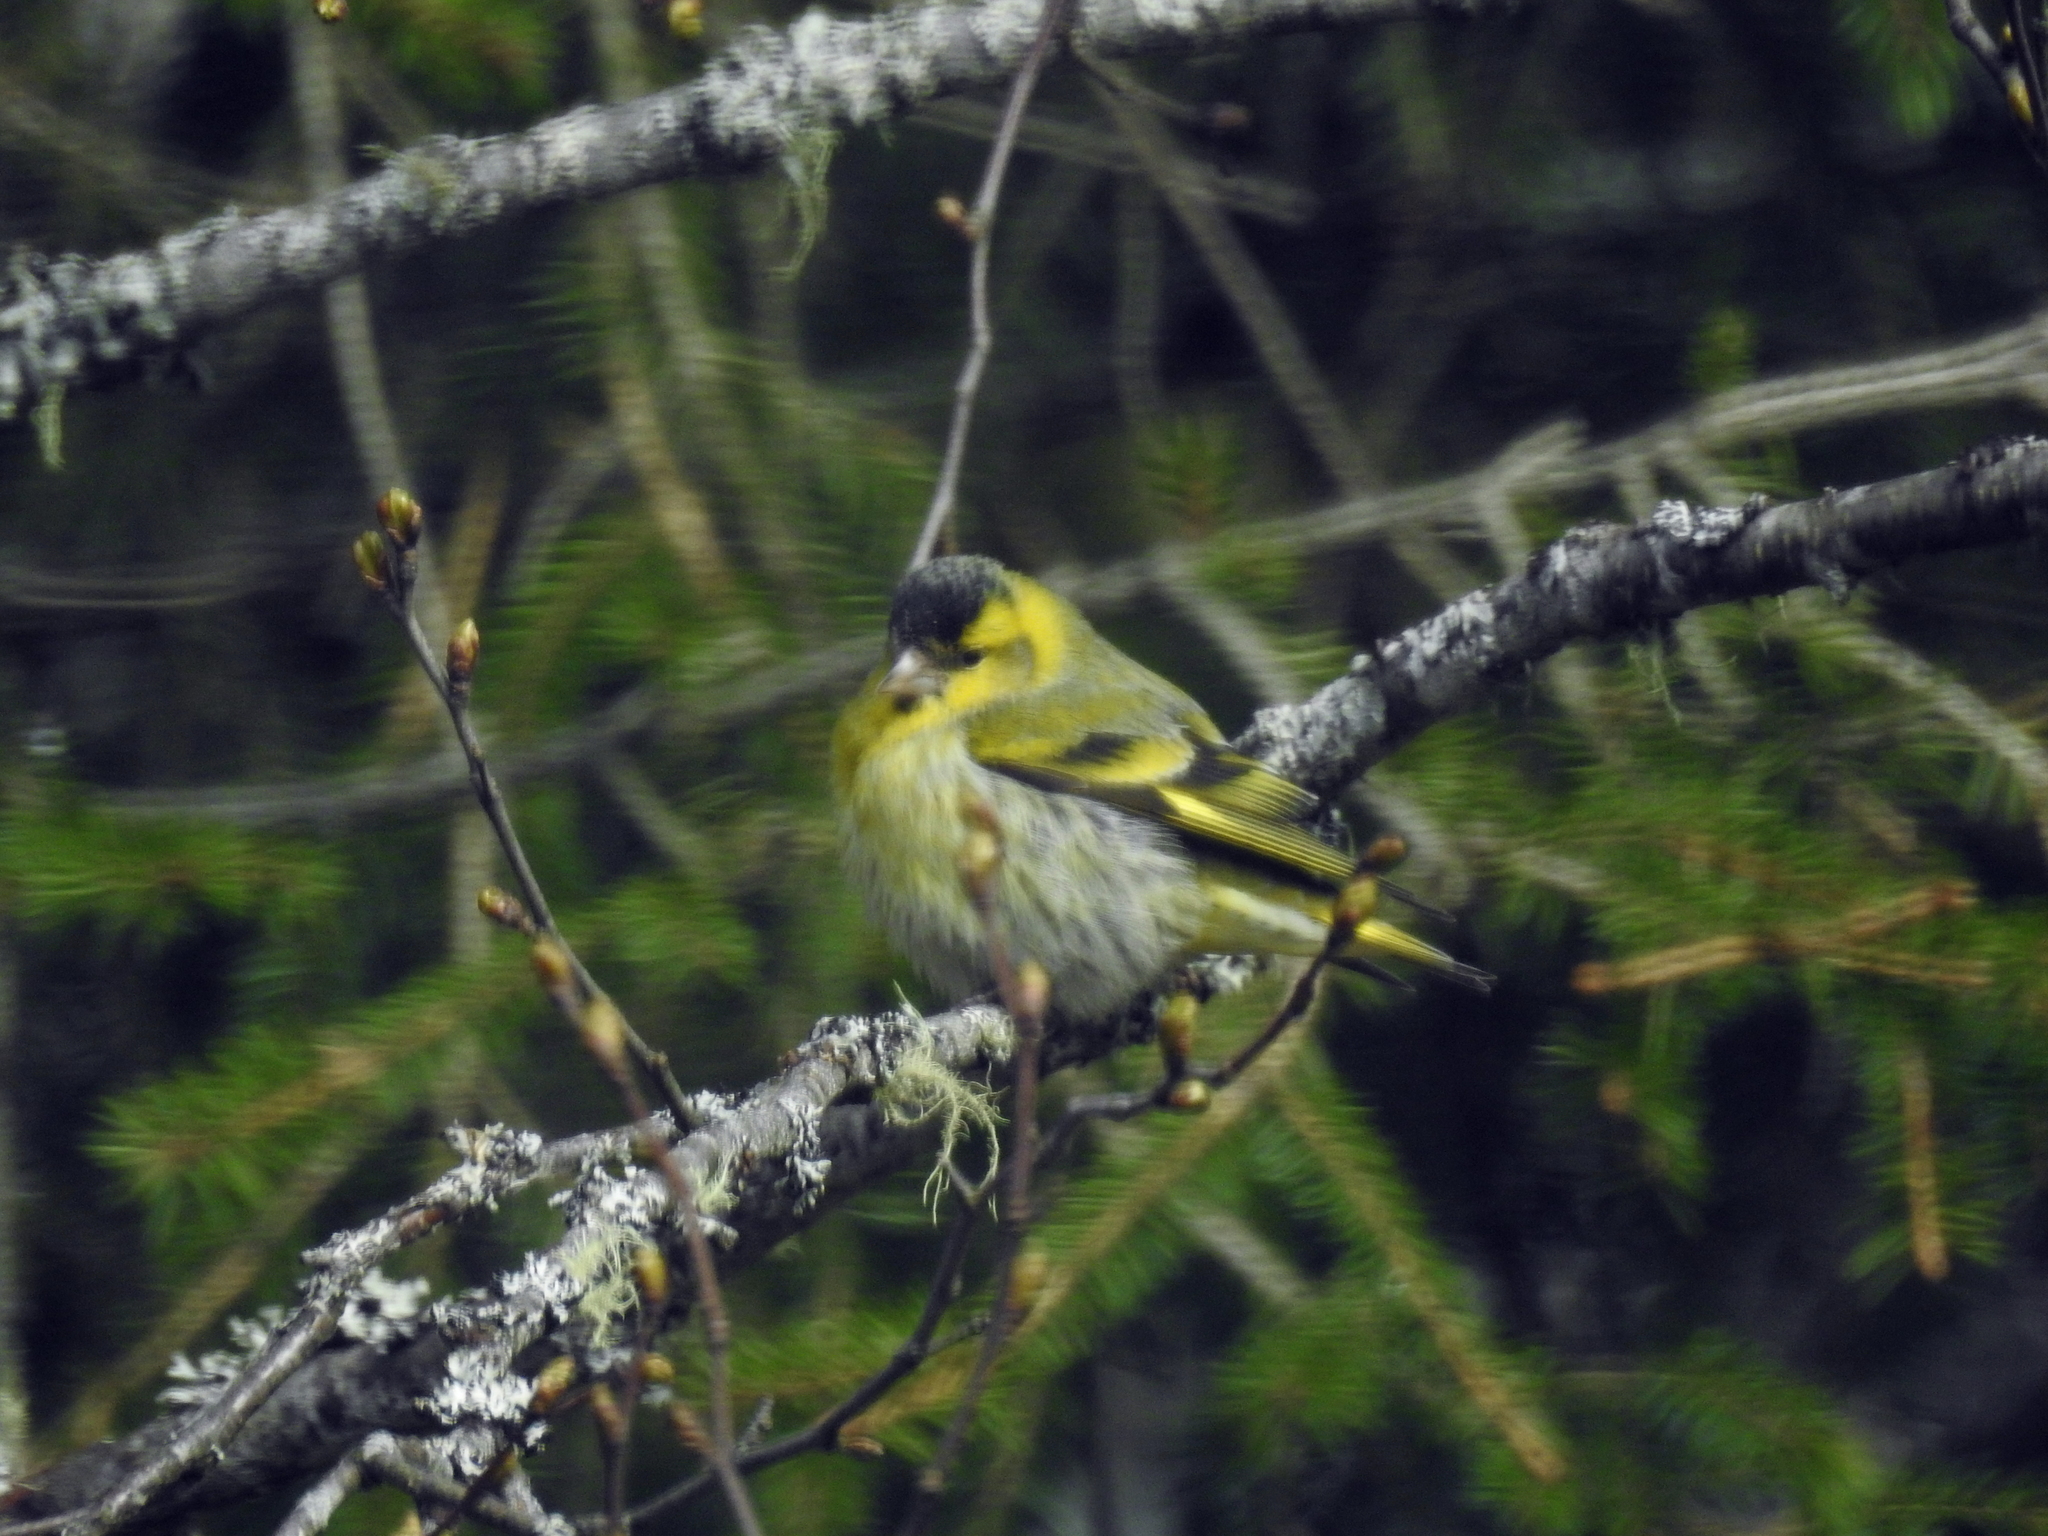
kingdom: Animalia
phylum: Chordata
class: Aves
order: Passeriformes
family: Fringillidae
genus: Spinus
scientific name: Spinus spinus
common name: Eurasian siskin
